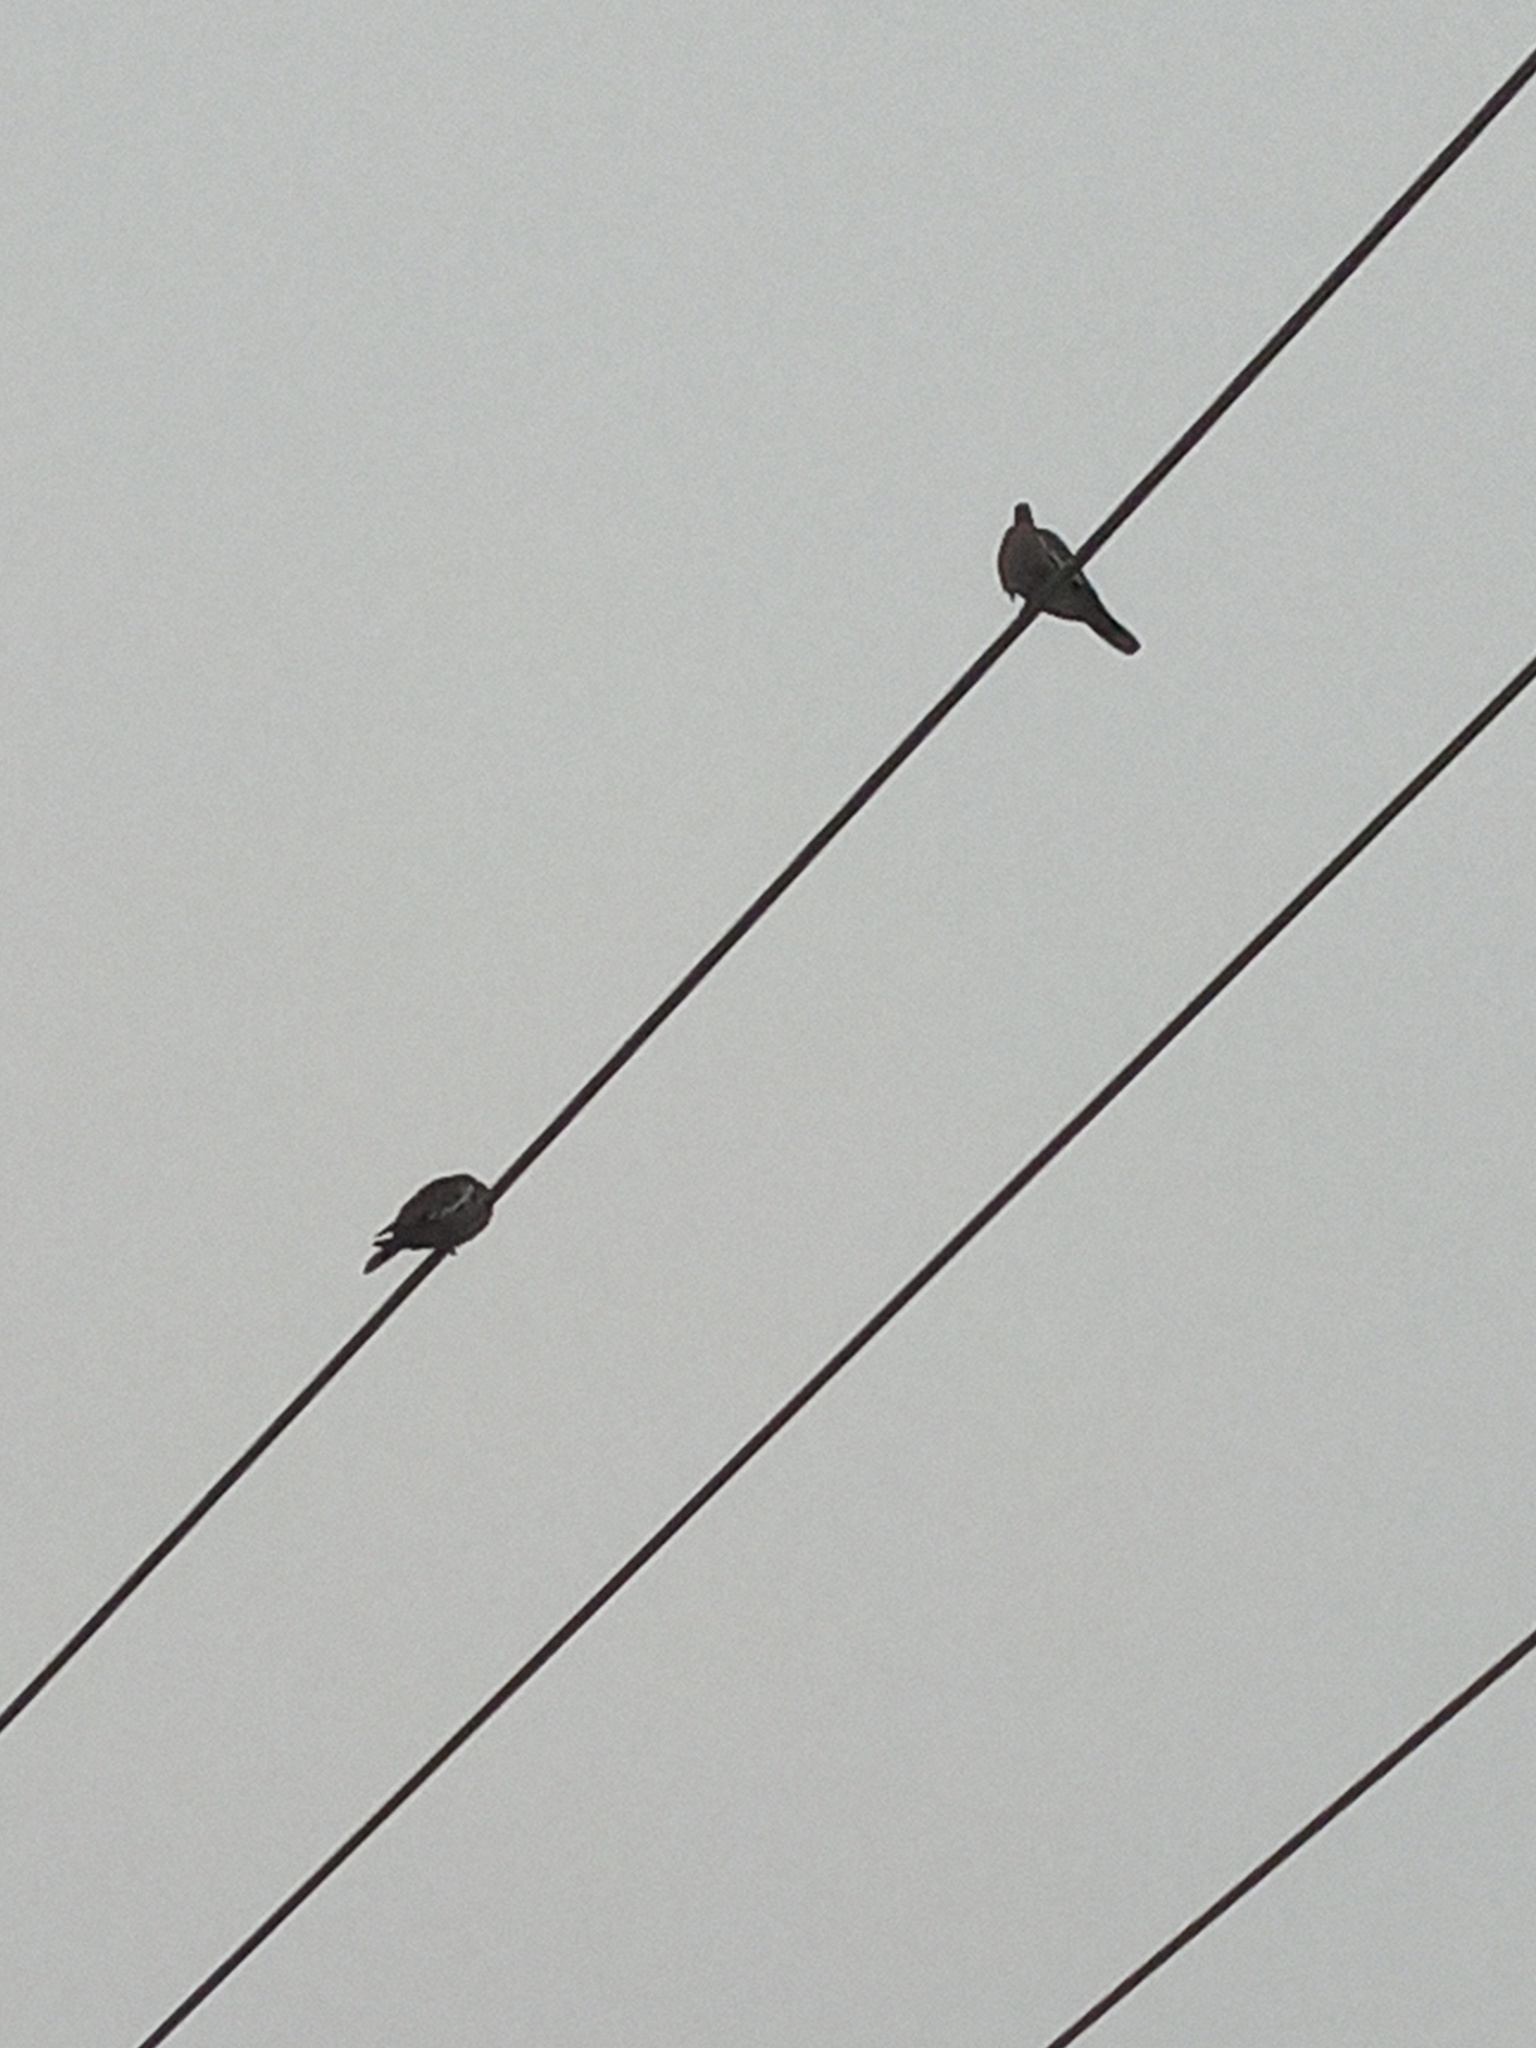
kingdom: Animalia
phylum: Chordata
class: Aves
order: Columbiformes
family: Columbidae
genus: Zenaida
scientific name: Zenaida asiatica
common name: White-winged dove
